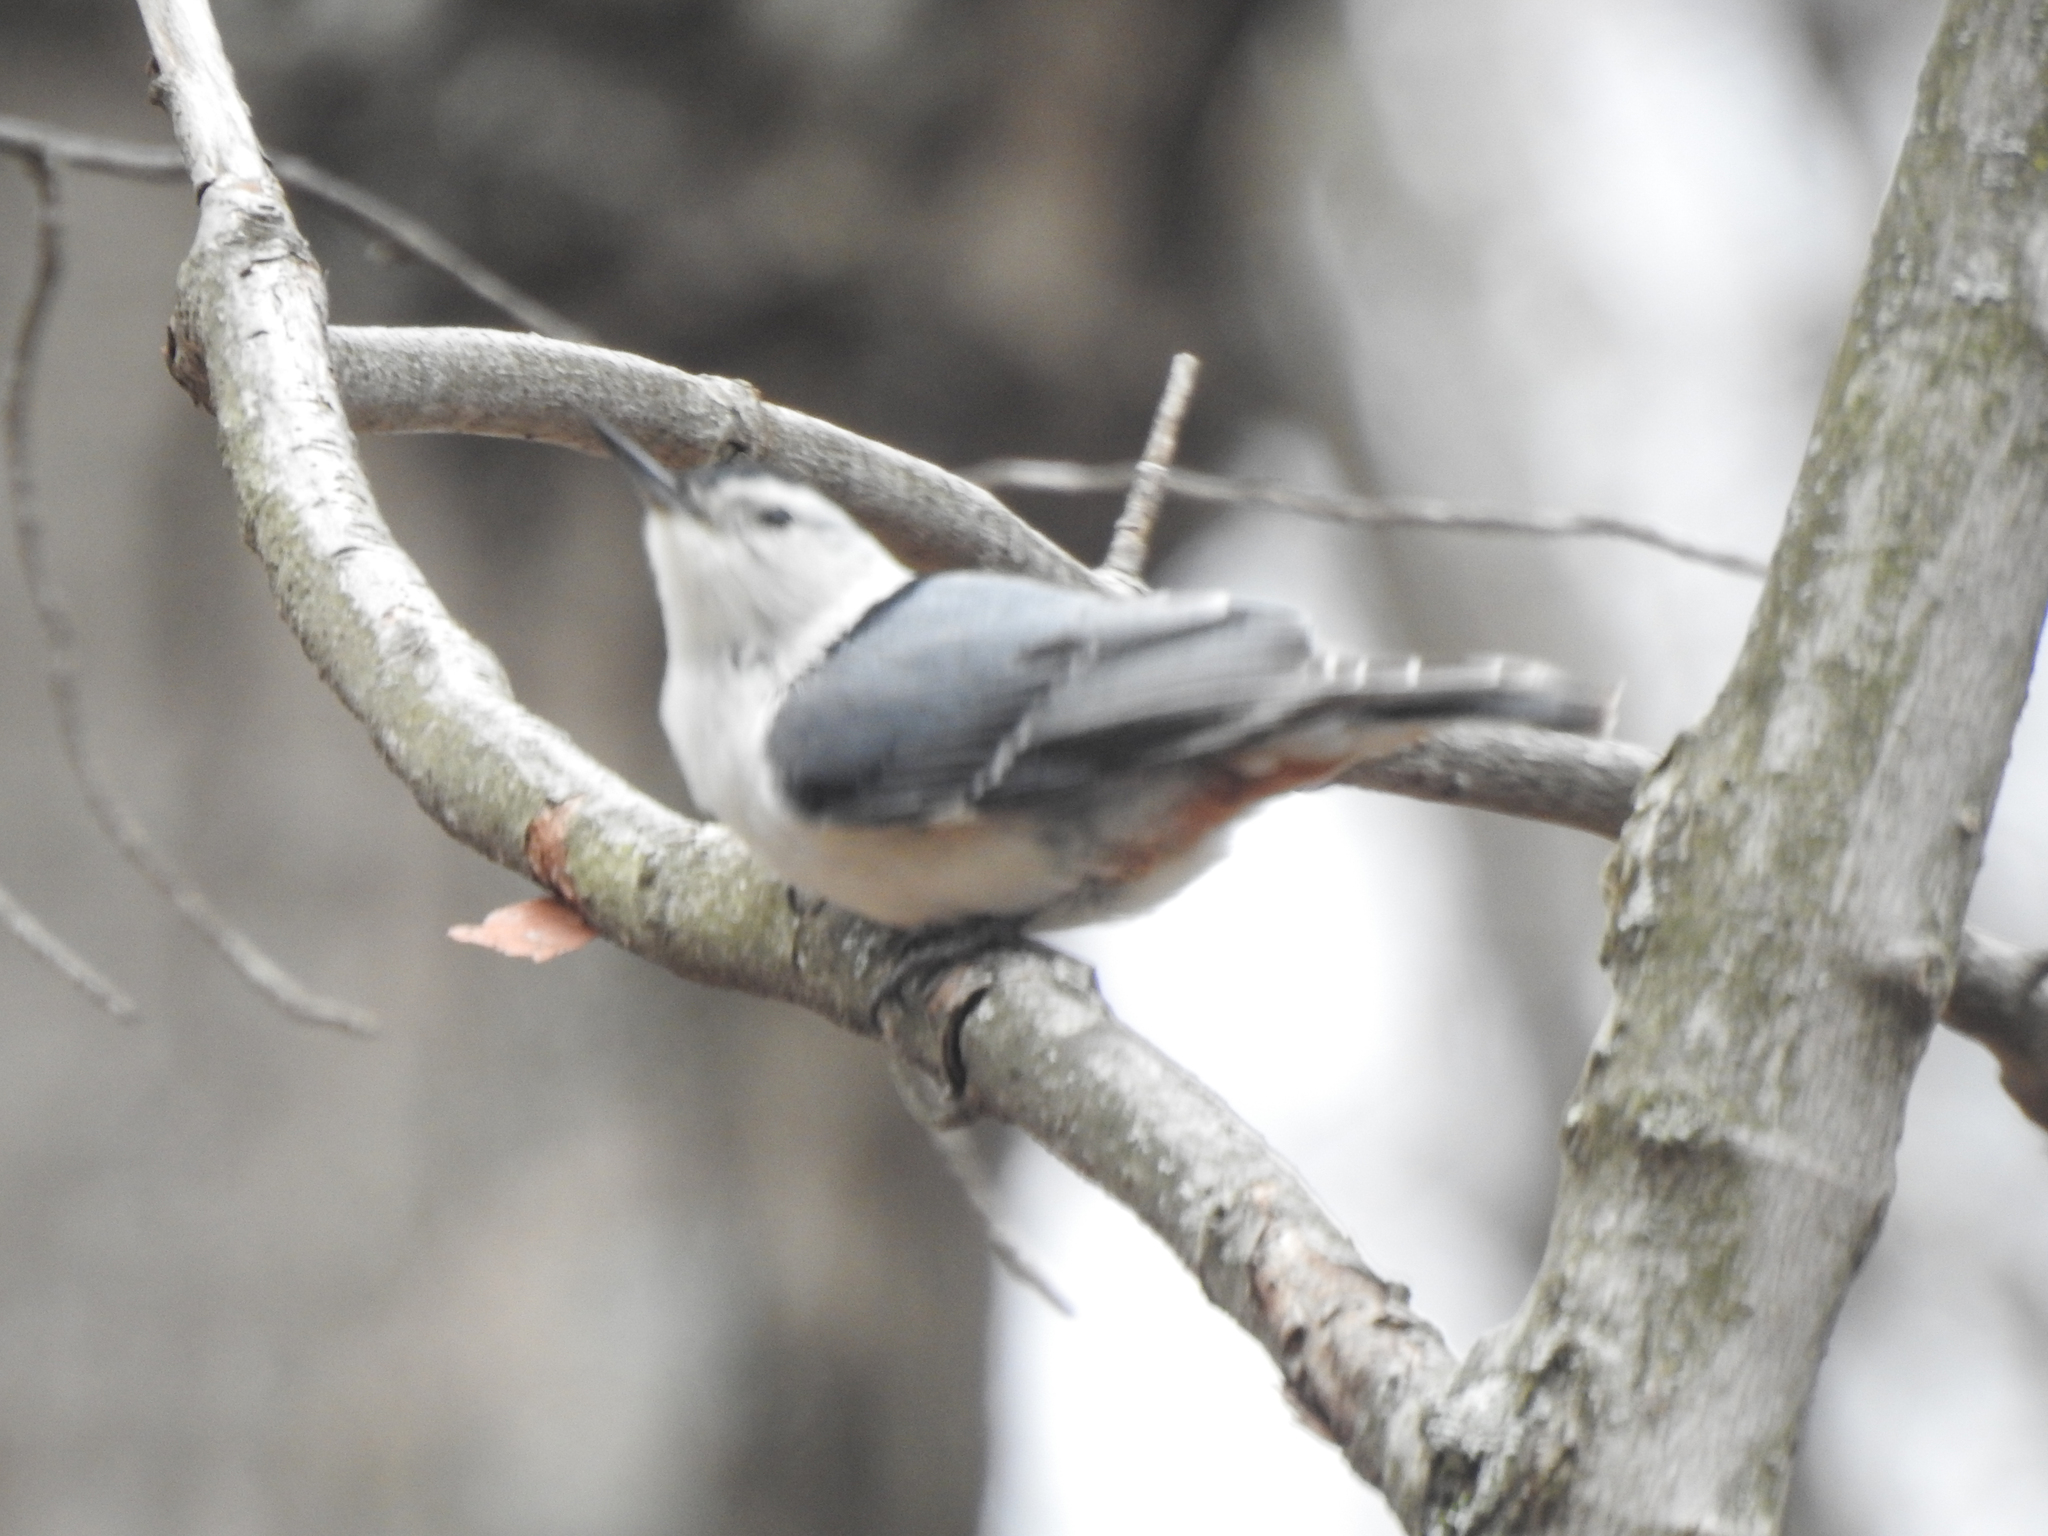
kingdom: Animalia
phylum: Chordata
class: Aves
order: Passeriformes
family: Sittidae
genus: Sitta
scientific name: Sitta carolinensis
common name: White-breasted nuthatch
